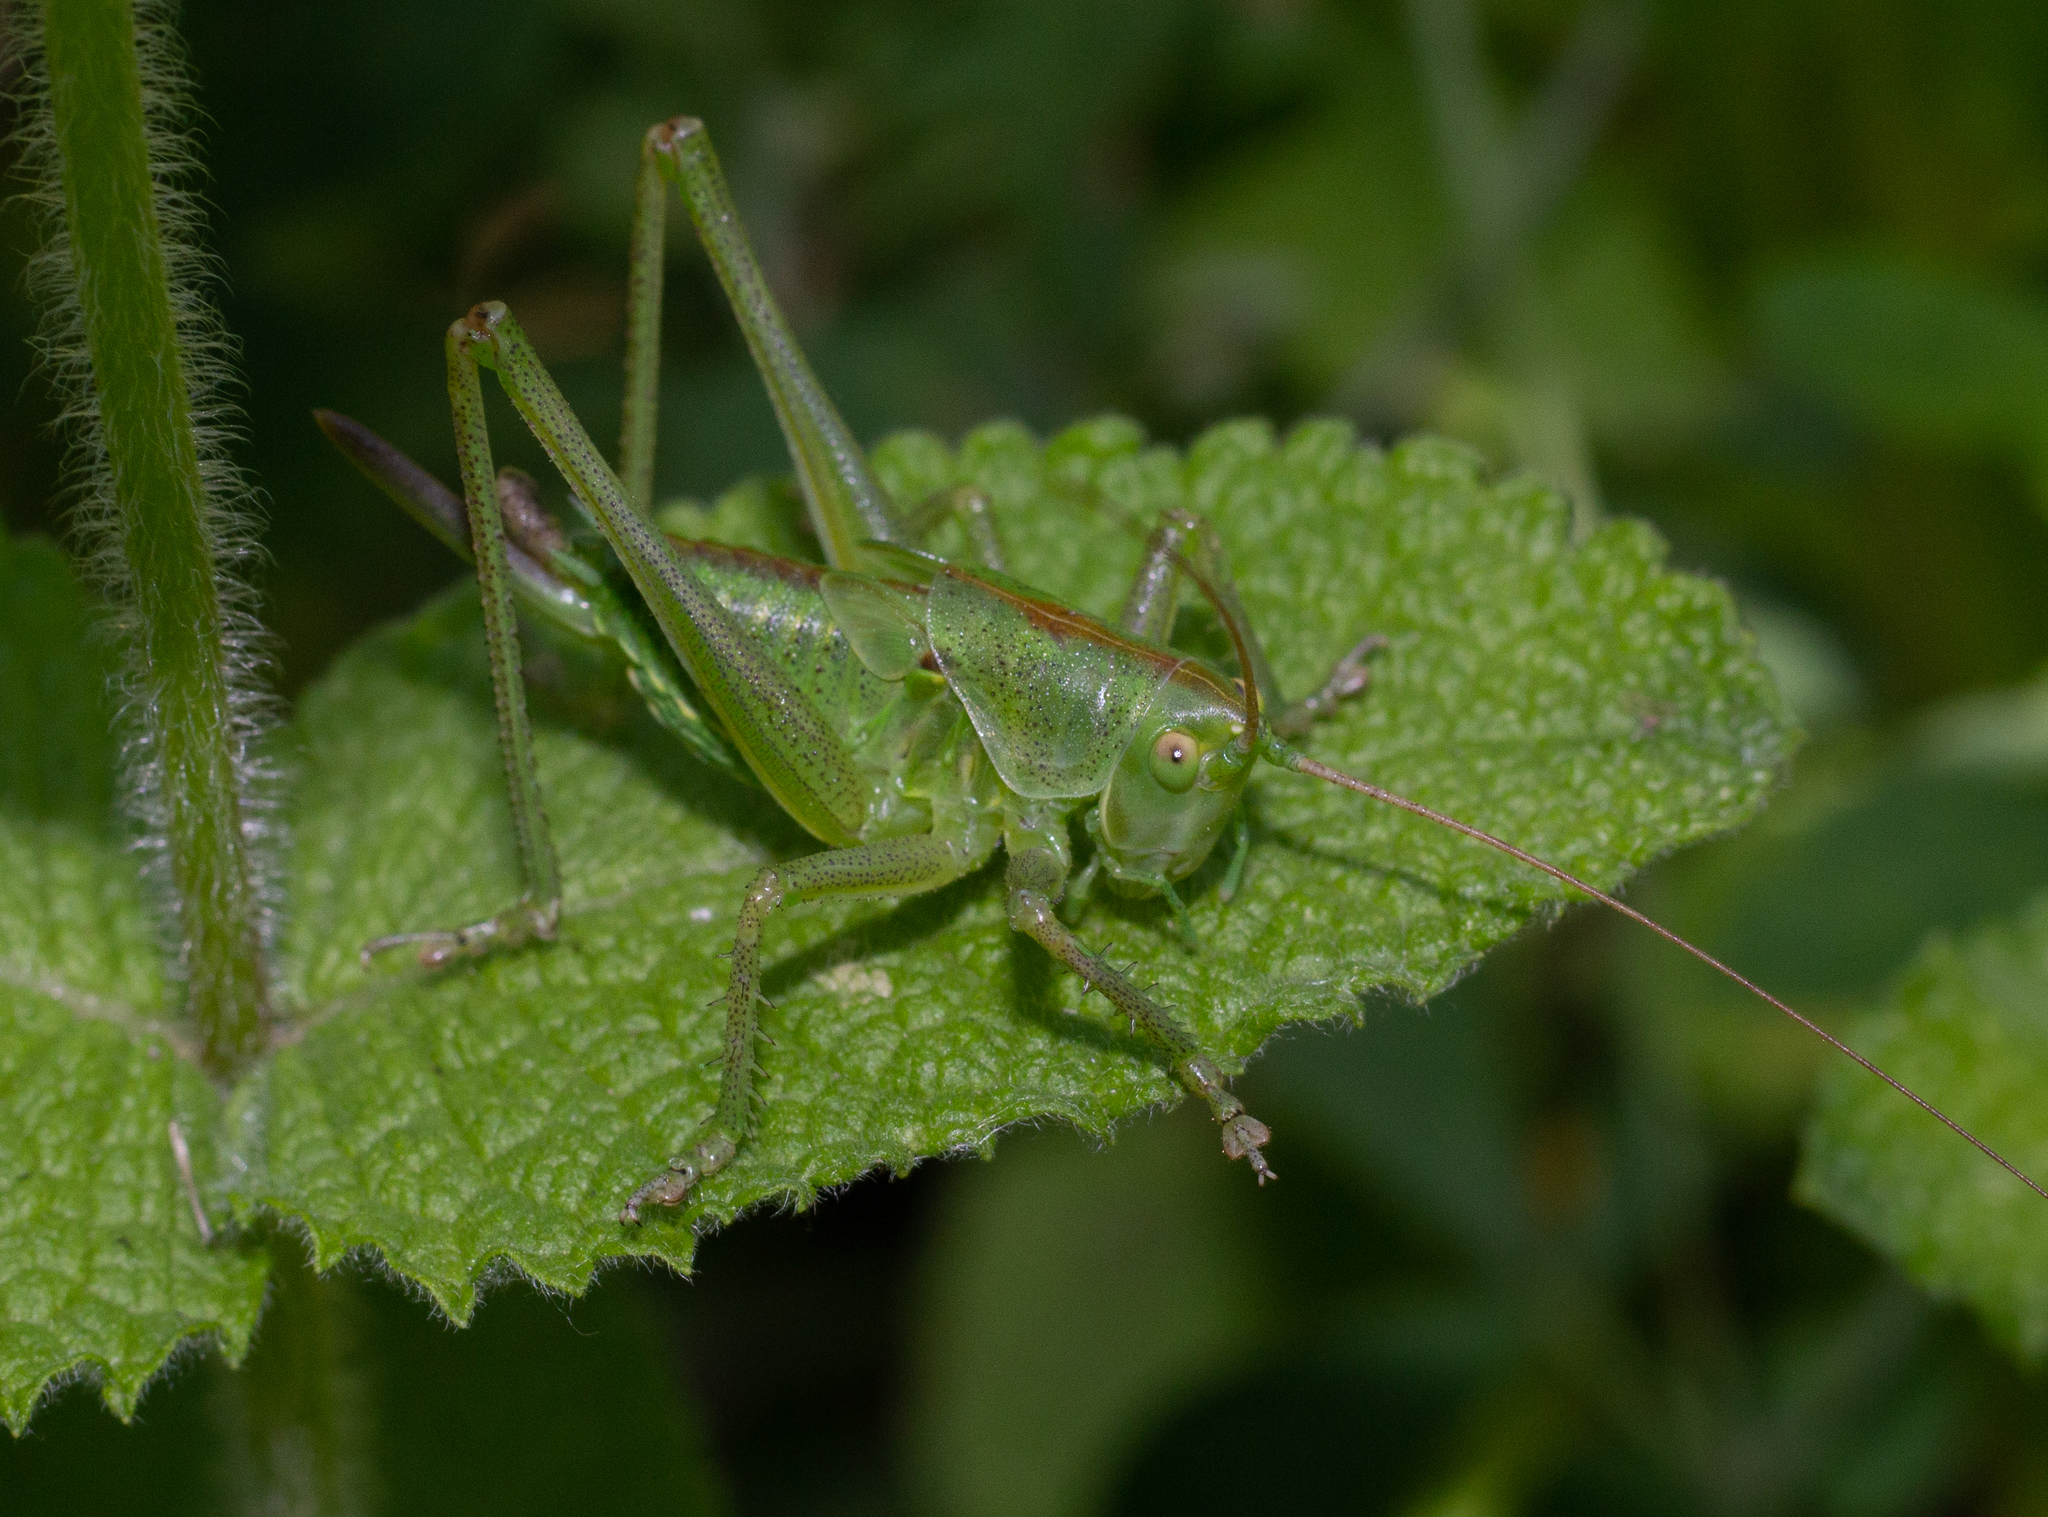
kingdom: Animalia
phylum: Arthropoda
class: Insecta
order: Orthoptera
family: Tettigoniidae
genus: Tettigonia
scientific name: Tettigonia viridissima
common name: Great green bush-cricket
